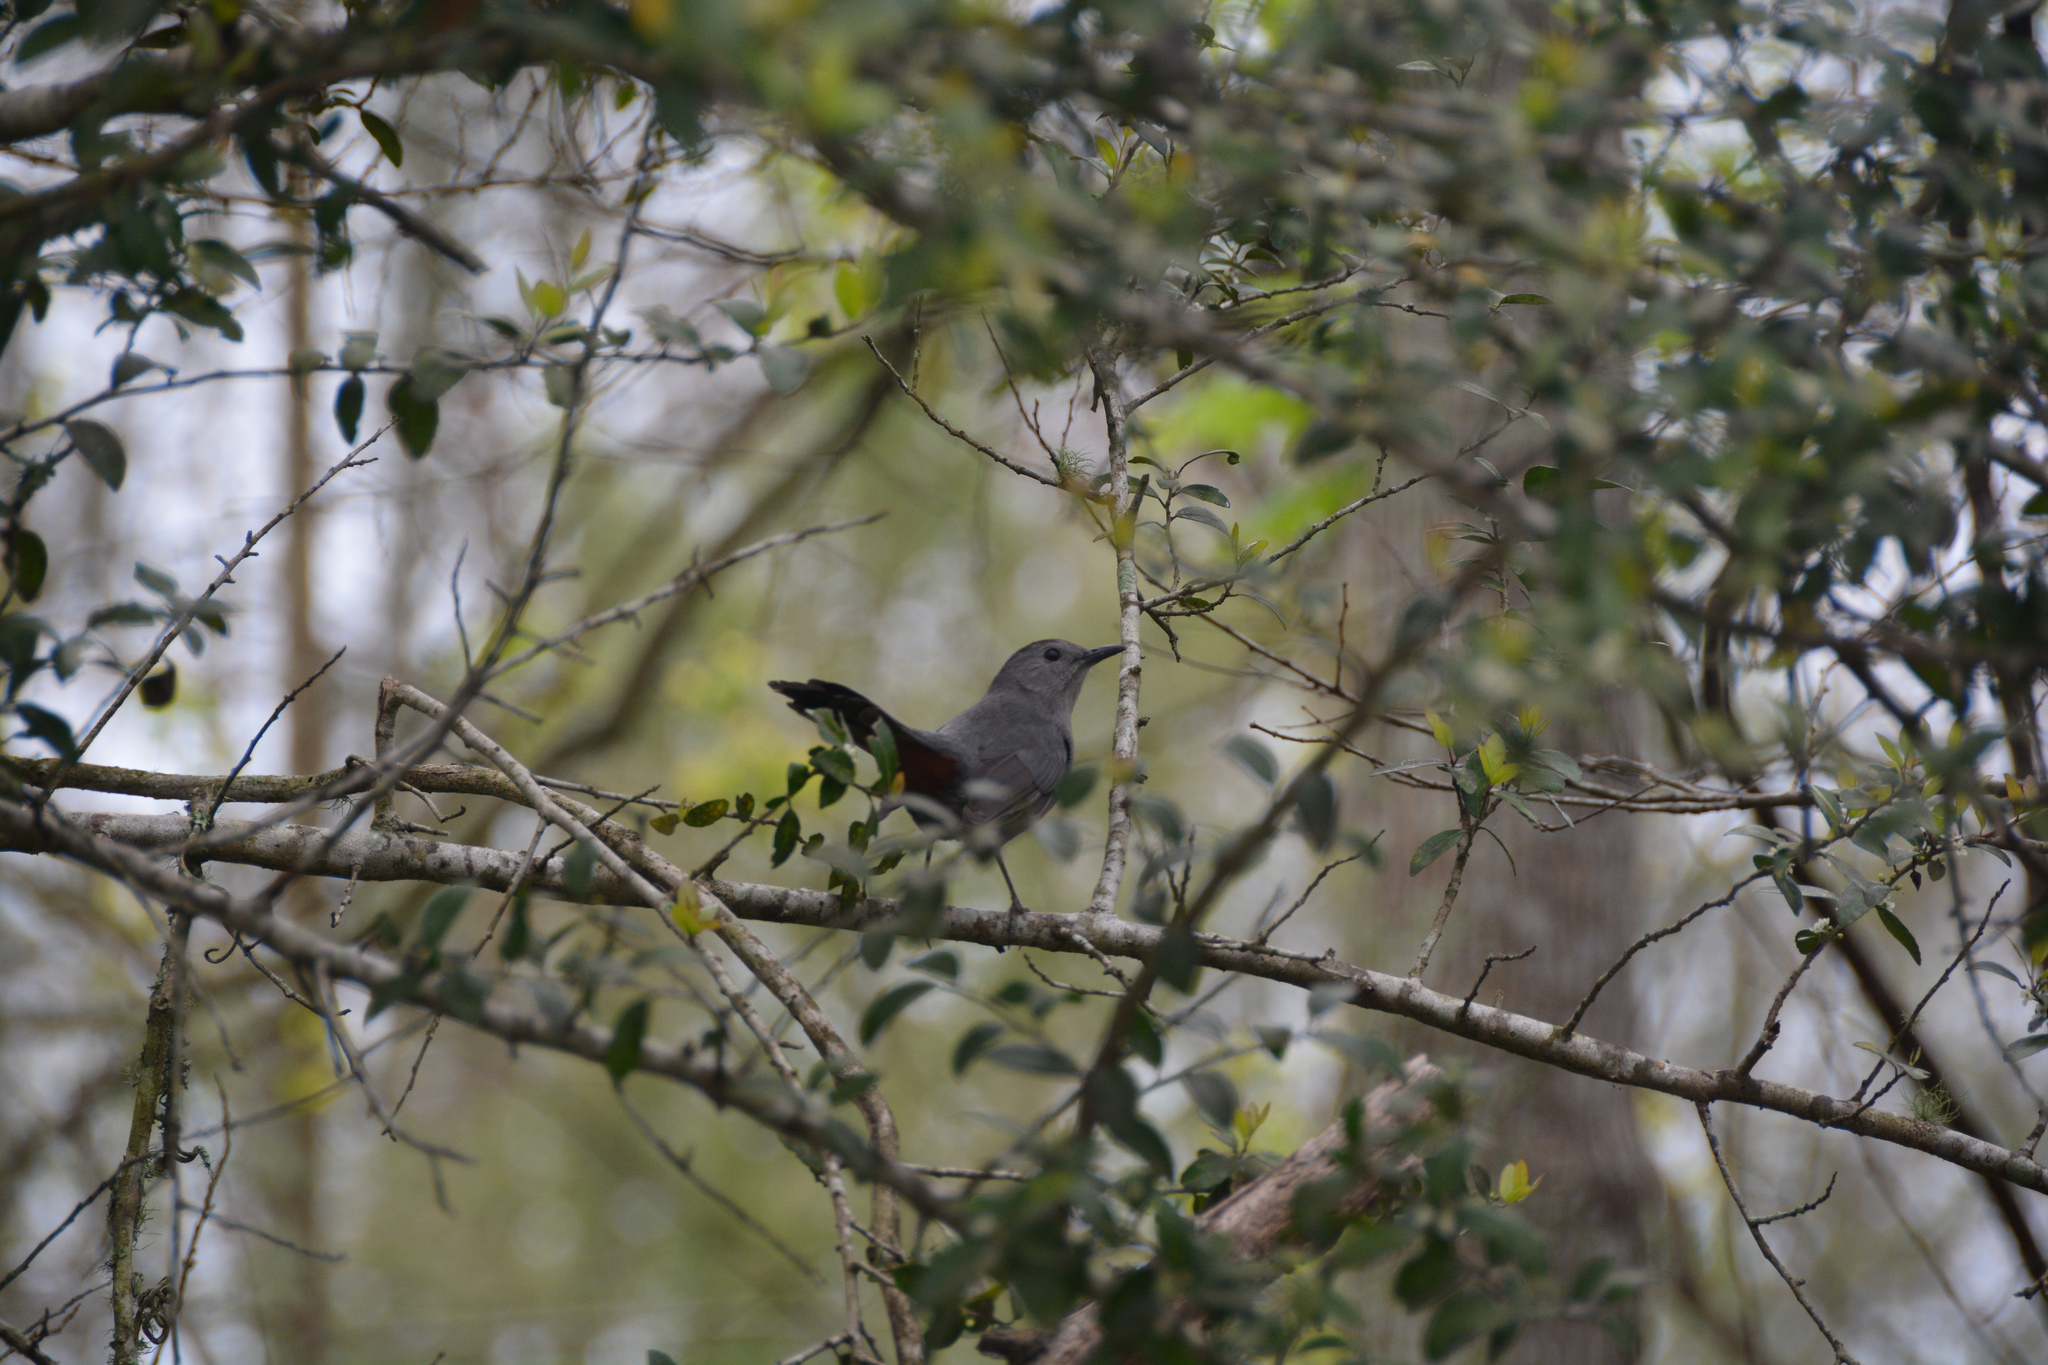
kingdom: Animalia
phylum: Chordata
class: Aves
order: Passeriformes
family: Mimidae
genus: Dumetella
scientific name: Dumetella carolinensis
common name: Gray catbird
